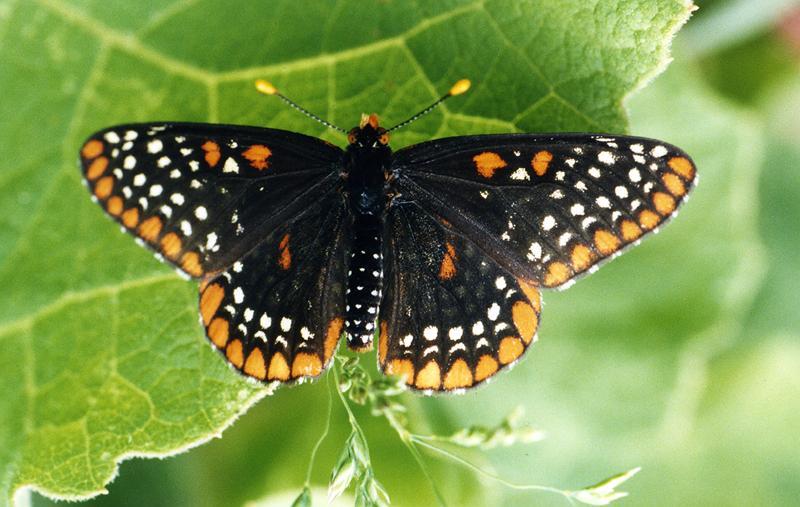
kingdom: Animalia
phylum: Arthropoda
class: Insecta
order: Lepidoptera
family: Nymphalidae
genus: Euphydryas
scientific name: Euphydryas phaeton
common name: Baltimore checkerspot
